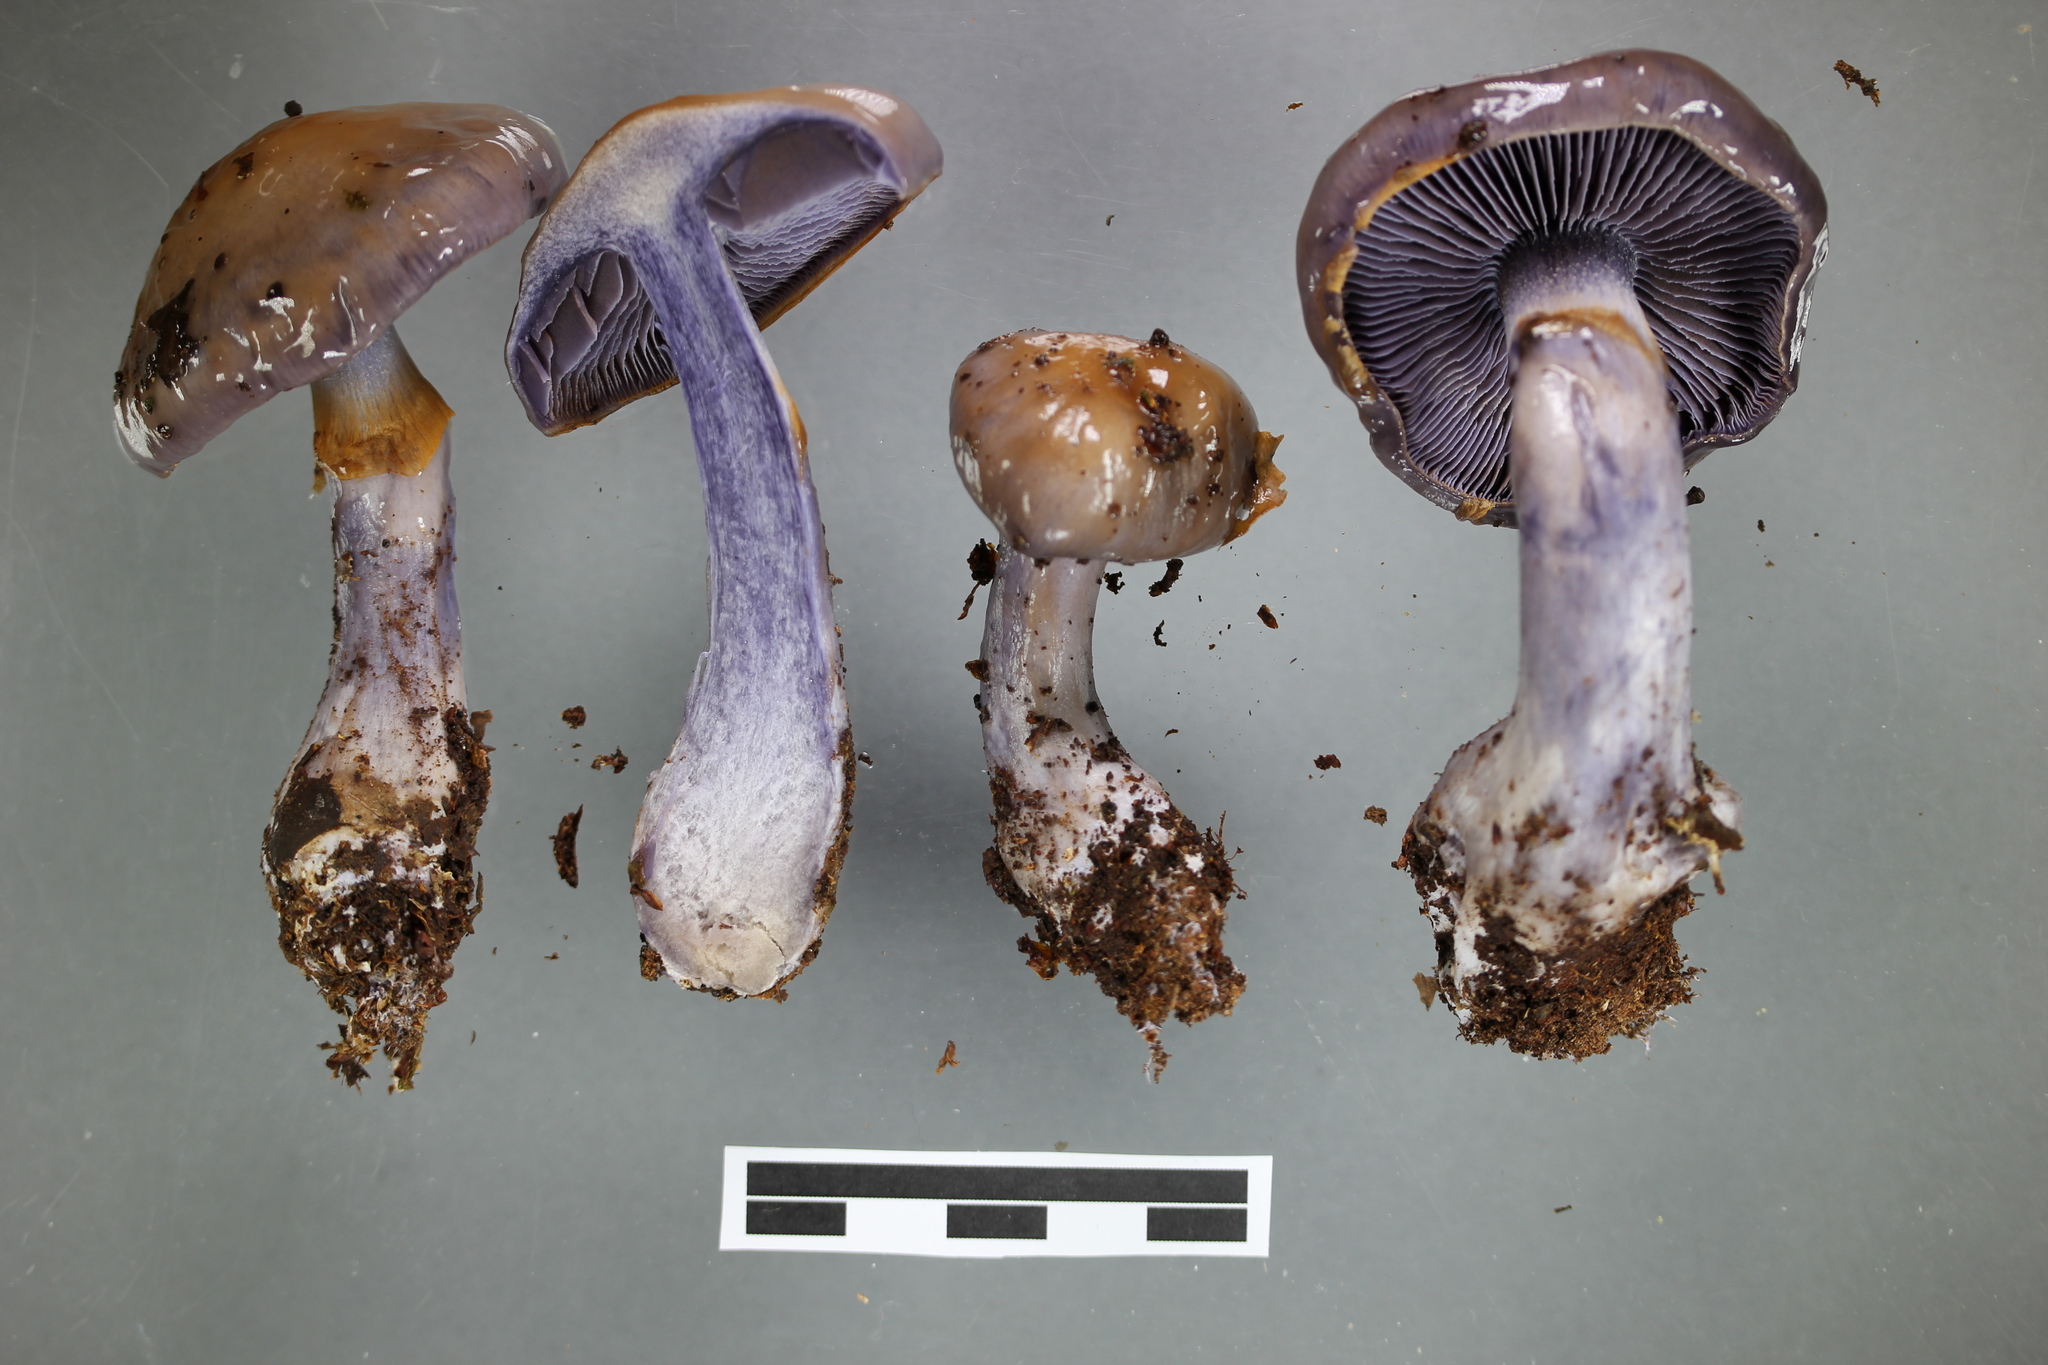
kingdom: Fungi
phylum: Basidiomycota
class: Agaricomycetes
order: Agaricales
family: Cortinariaceae
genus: Cortinarius
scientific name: Cortinarius taylorianus
